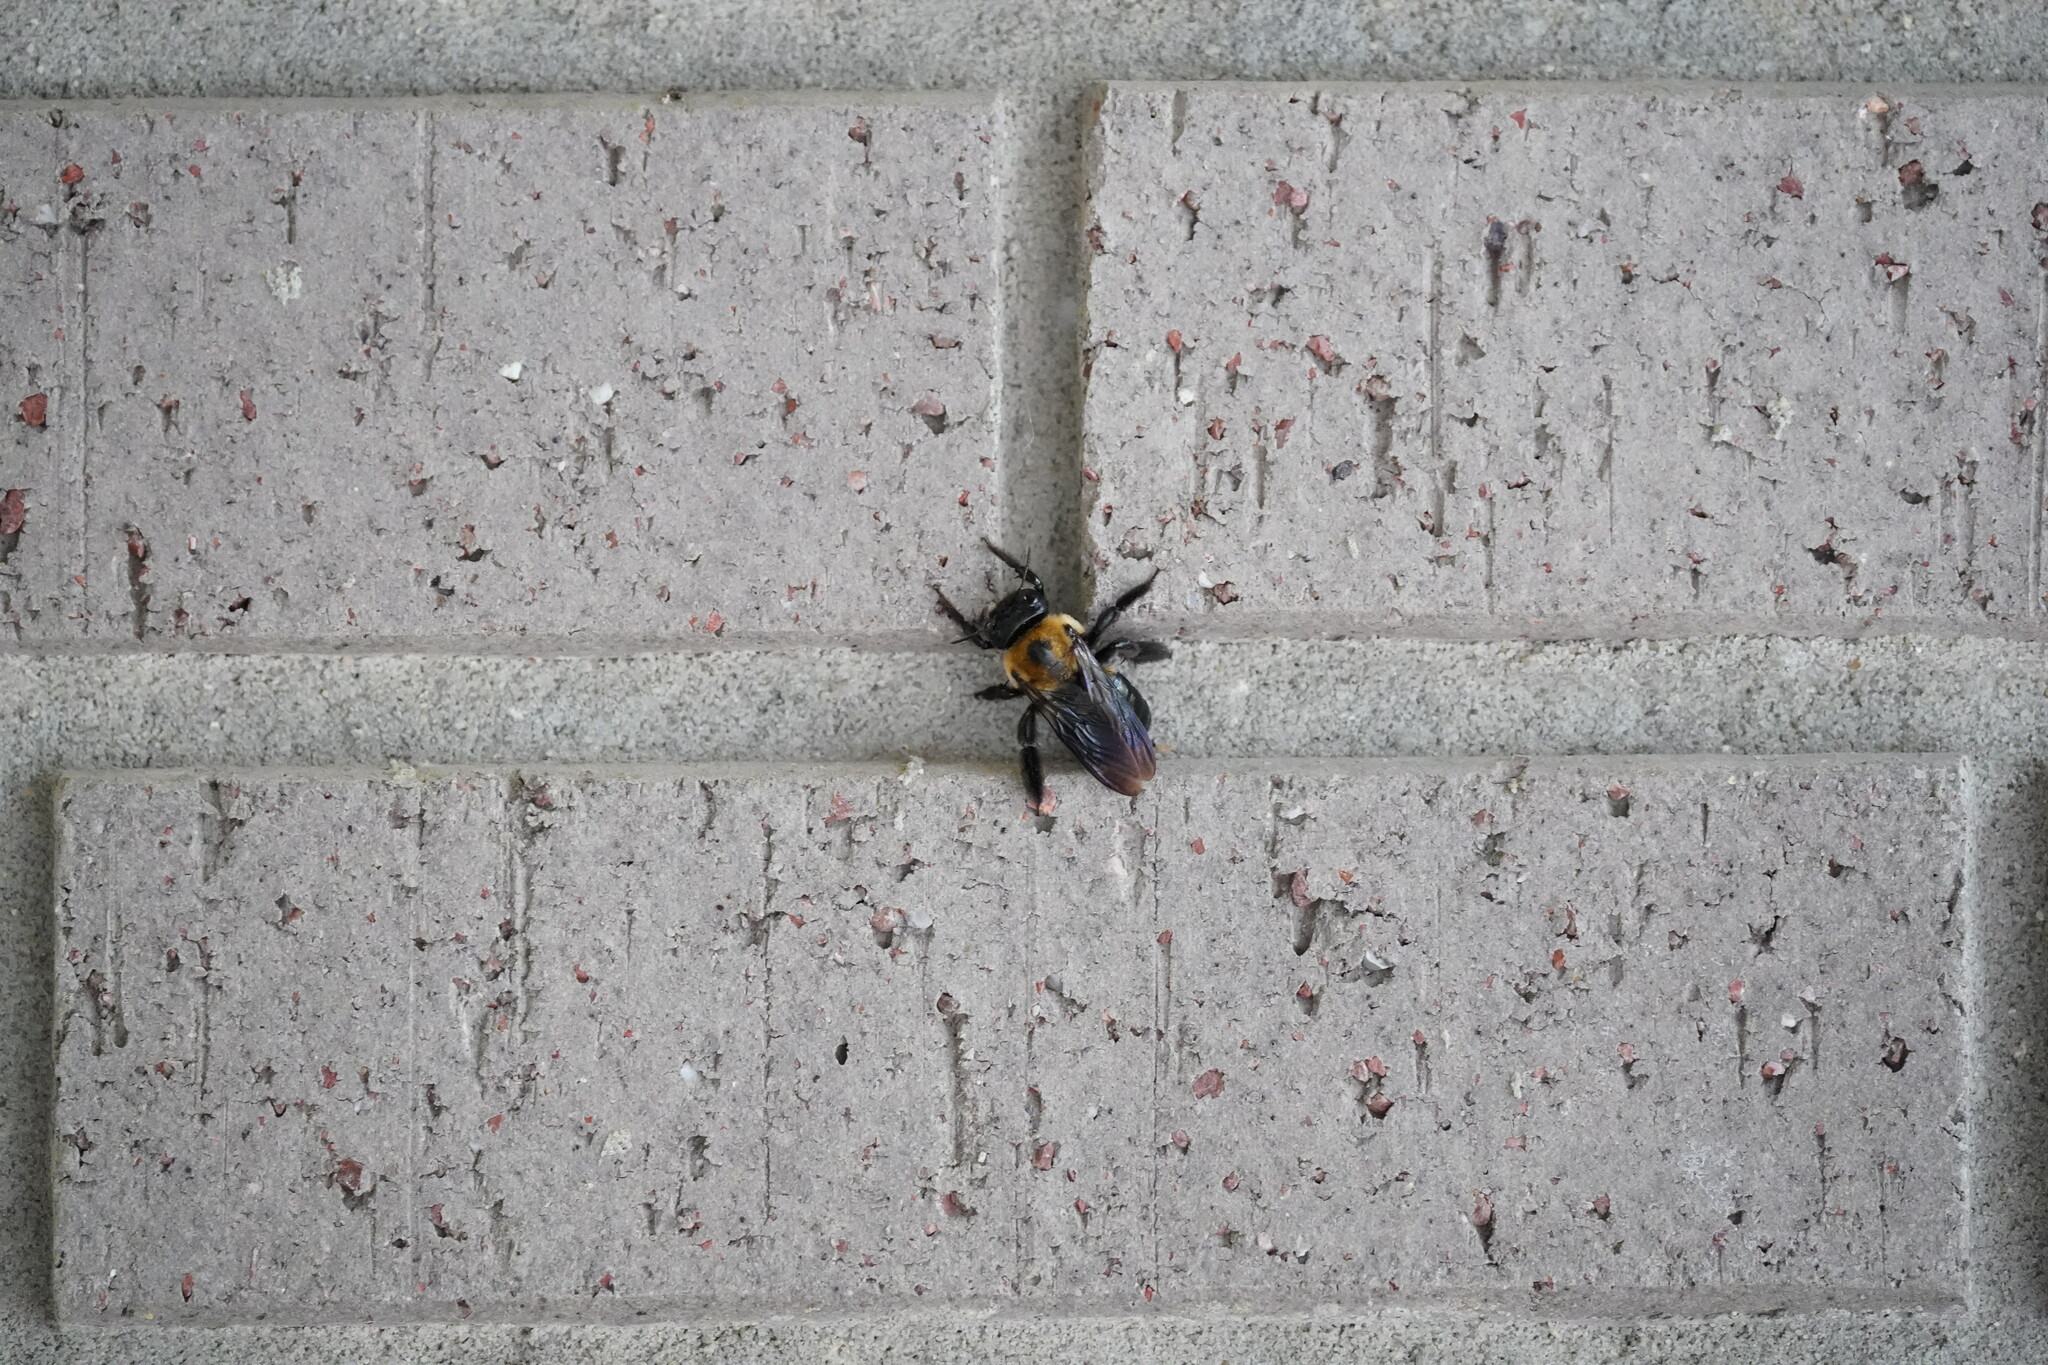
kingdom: Animalia
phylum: Arthropoda
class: Insecta
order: Hymenoptera
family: Apidae
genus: Xylocopa
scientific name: Xylocopa virginica
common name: Carpenter bee
